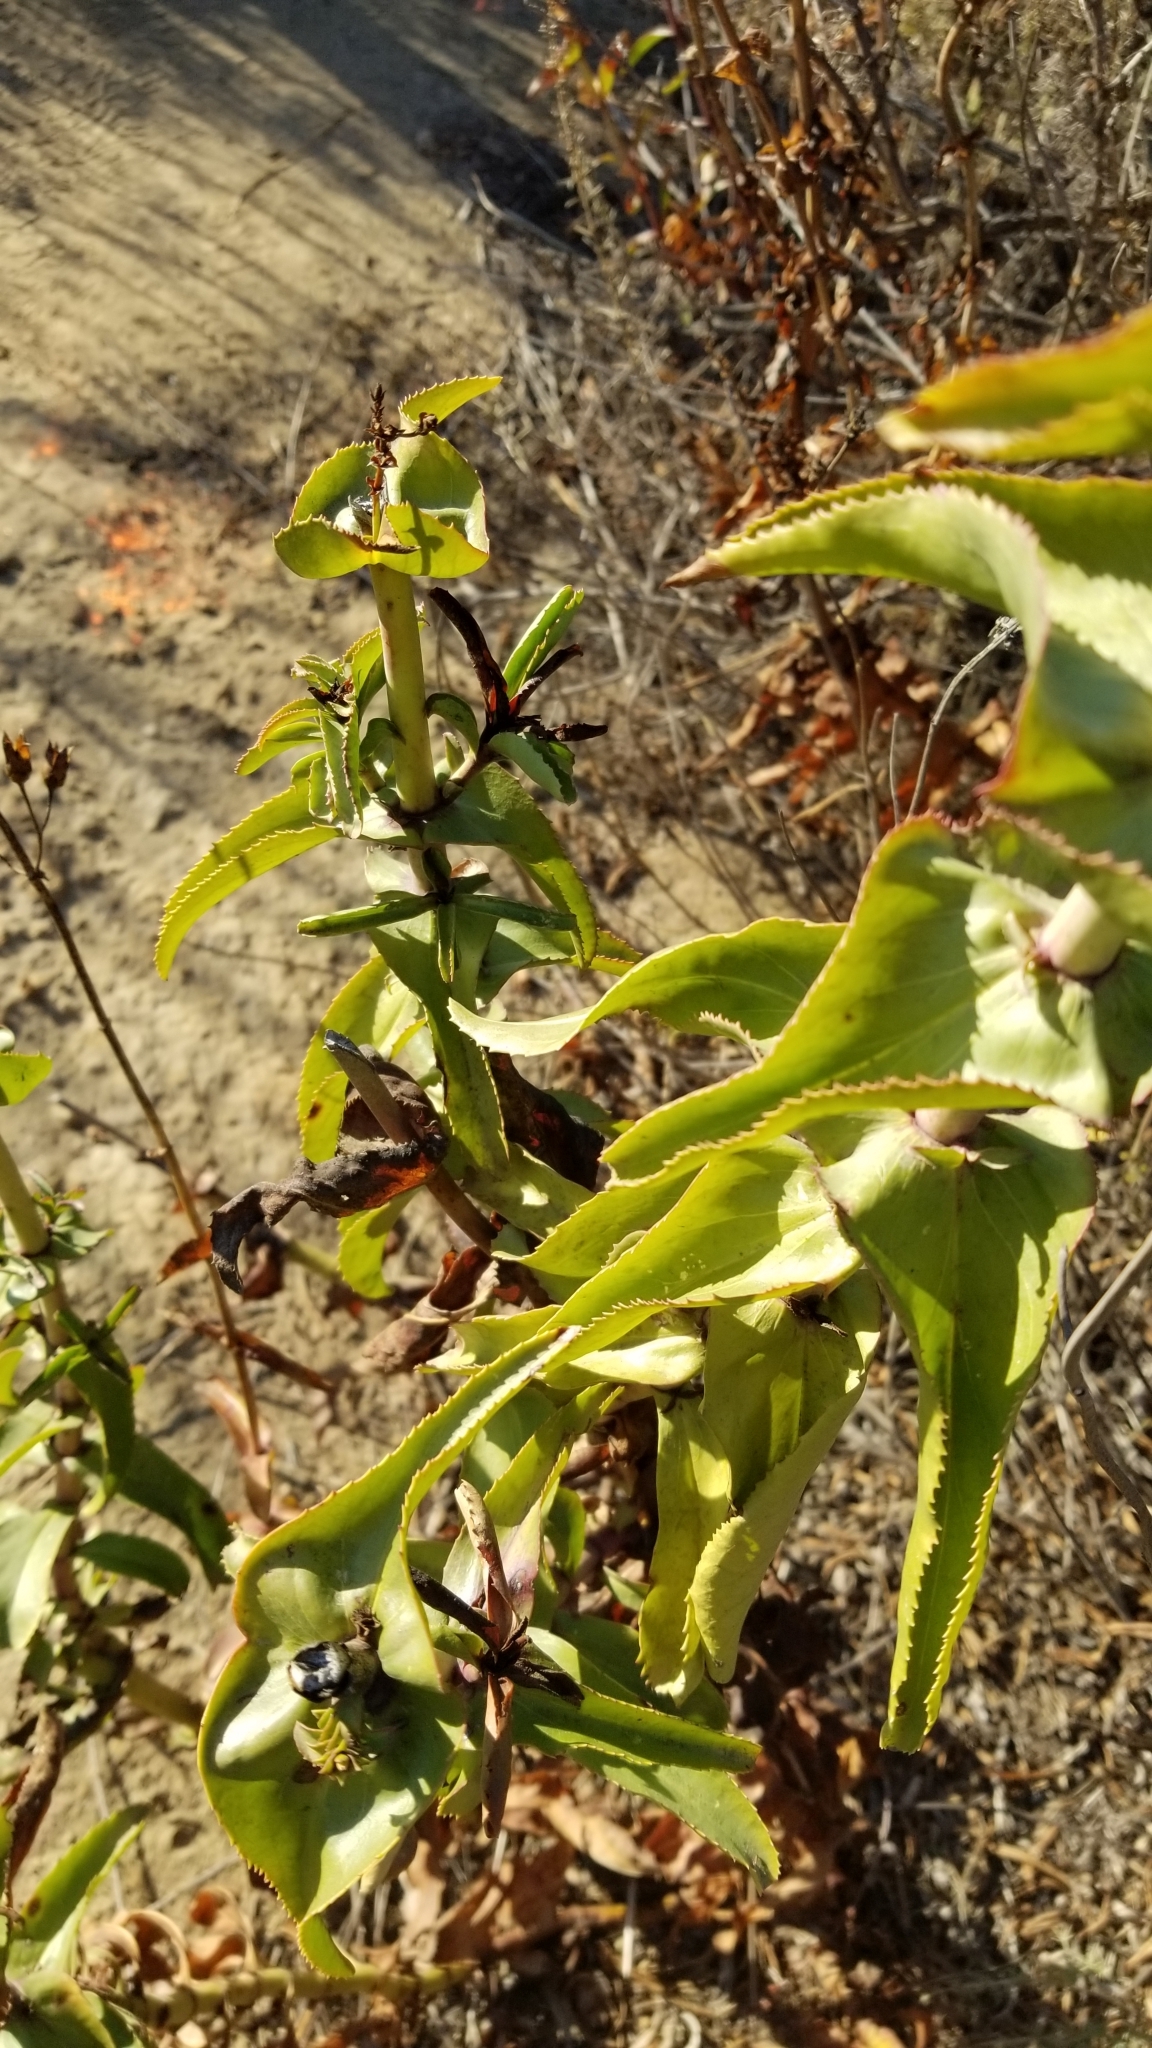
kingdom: Plantae
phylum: Tracheophyta
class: Magnoliopsida
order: Lamiales
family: Plantaginaceae
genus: Penstemon
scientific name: Penstemon spectabilis
